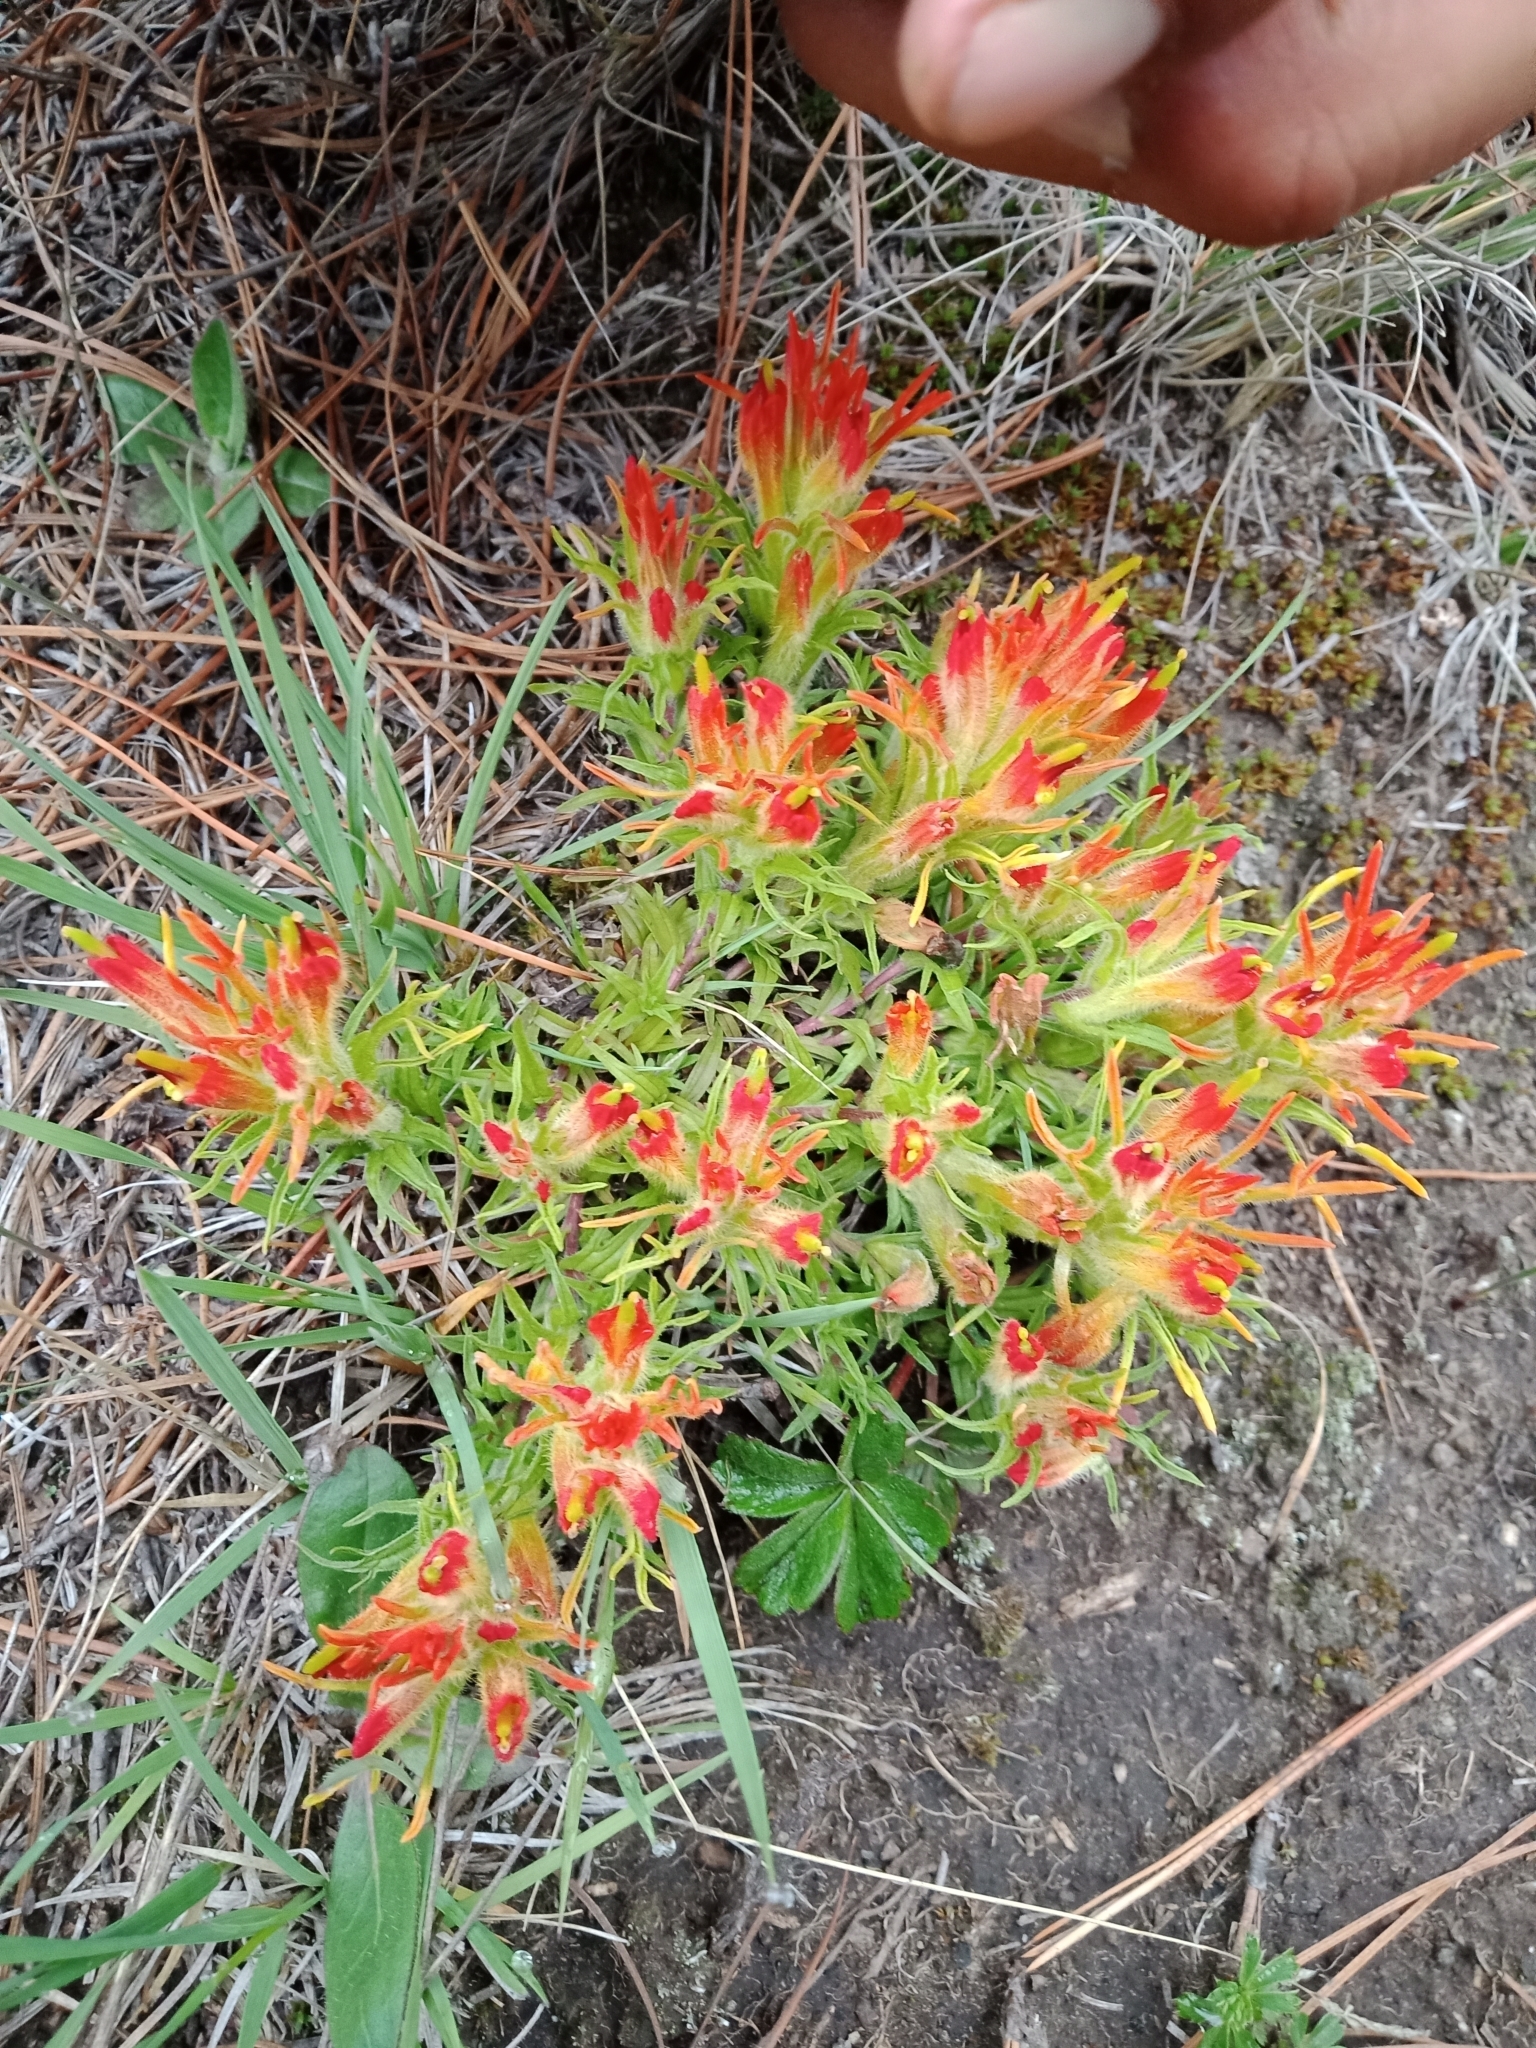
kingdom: Plantae
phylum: Tracheophyta
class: Magnoliopsida
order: Lamiales
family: Orobanchaceae
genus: Castilleja
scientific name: Castilleja moranensis
